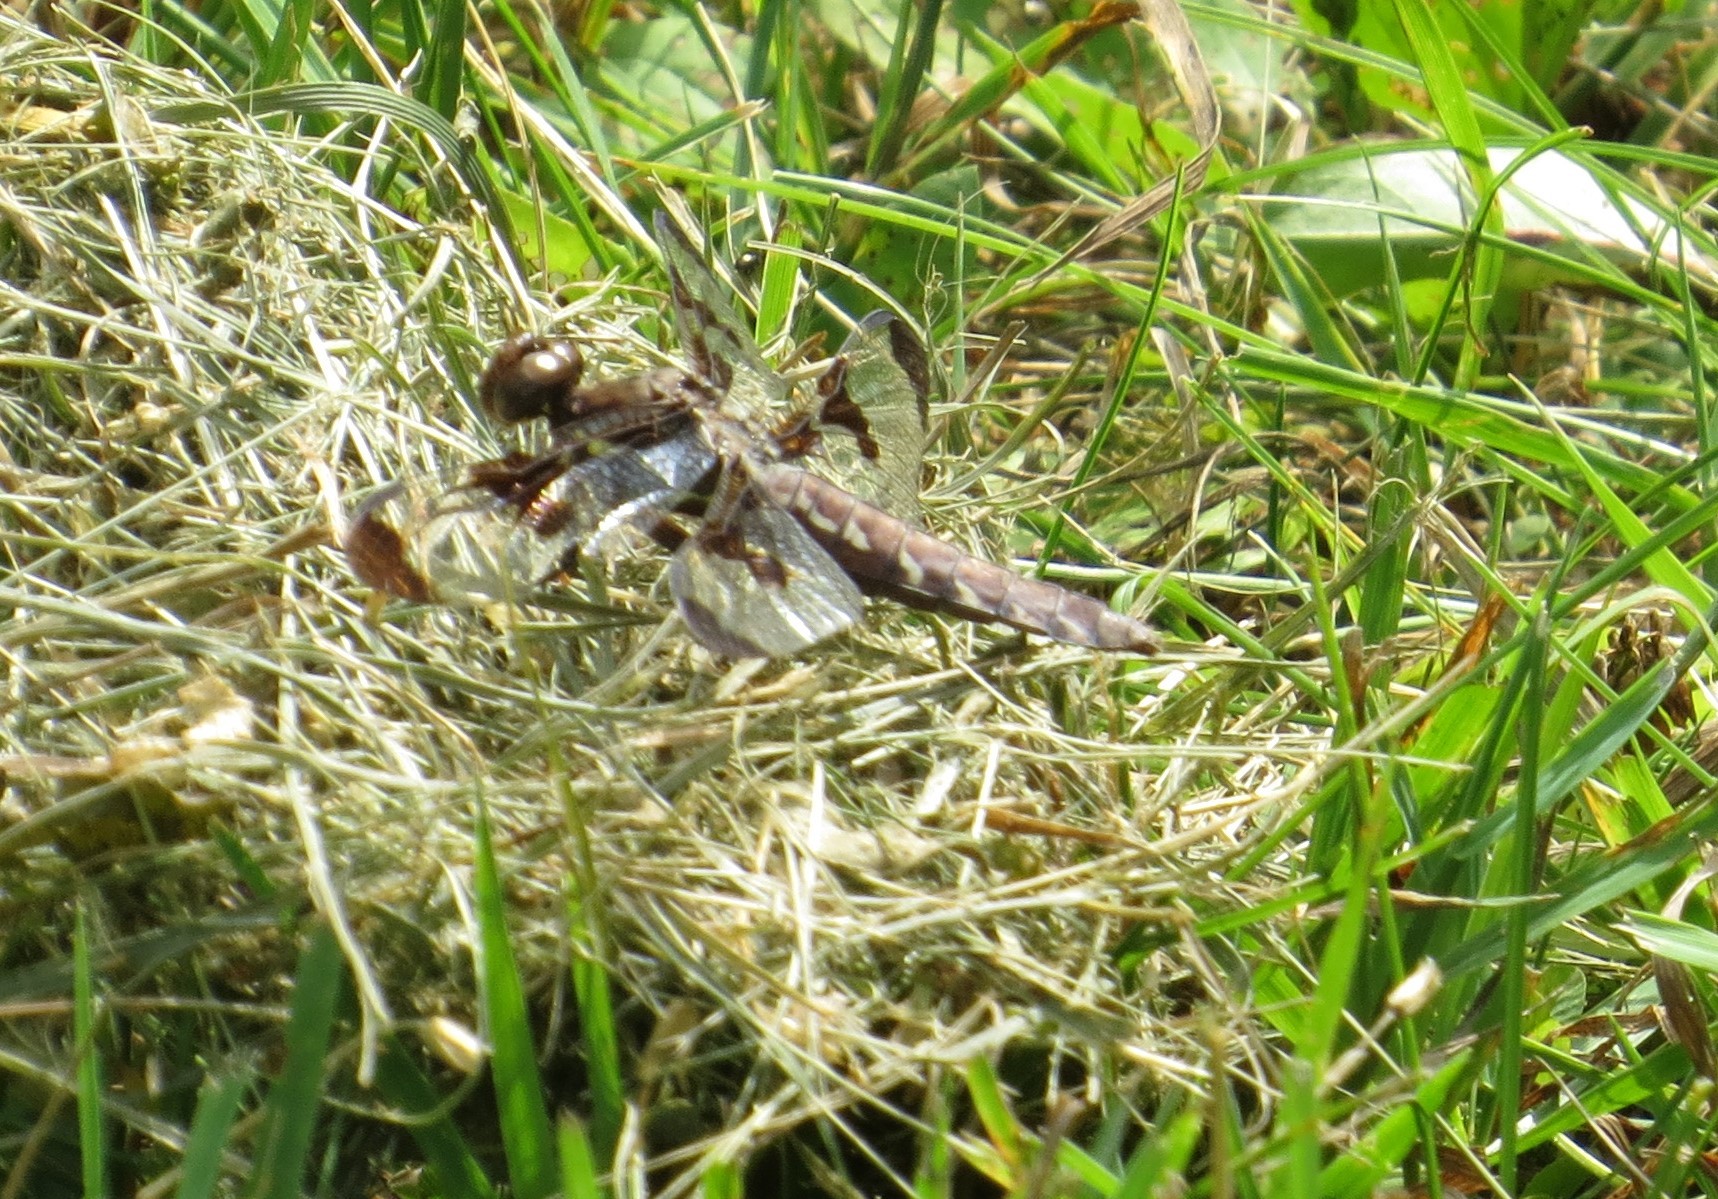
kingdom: Animalia
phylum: Arthropoda
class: Insecta
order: Odonata
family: Libellulidae
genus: Libellula
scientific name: Libellula pulchella
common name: Twelve-spotted skimmer
